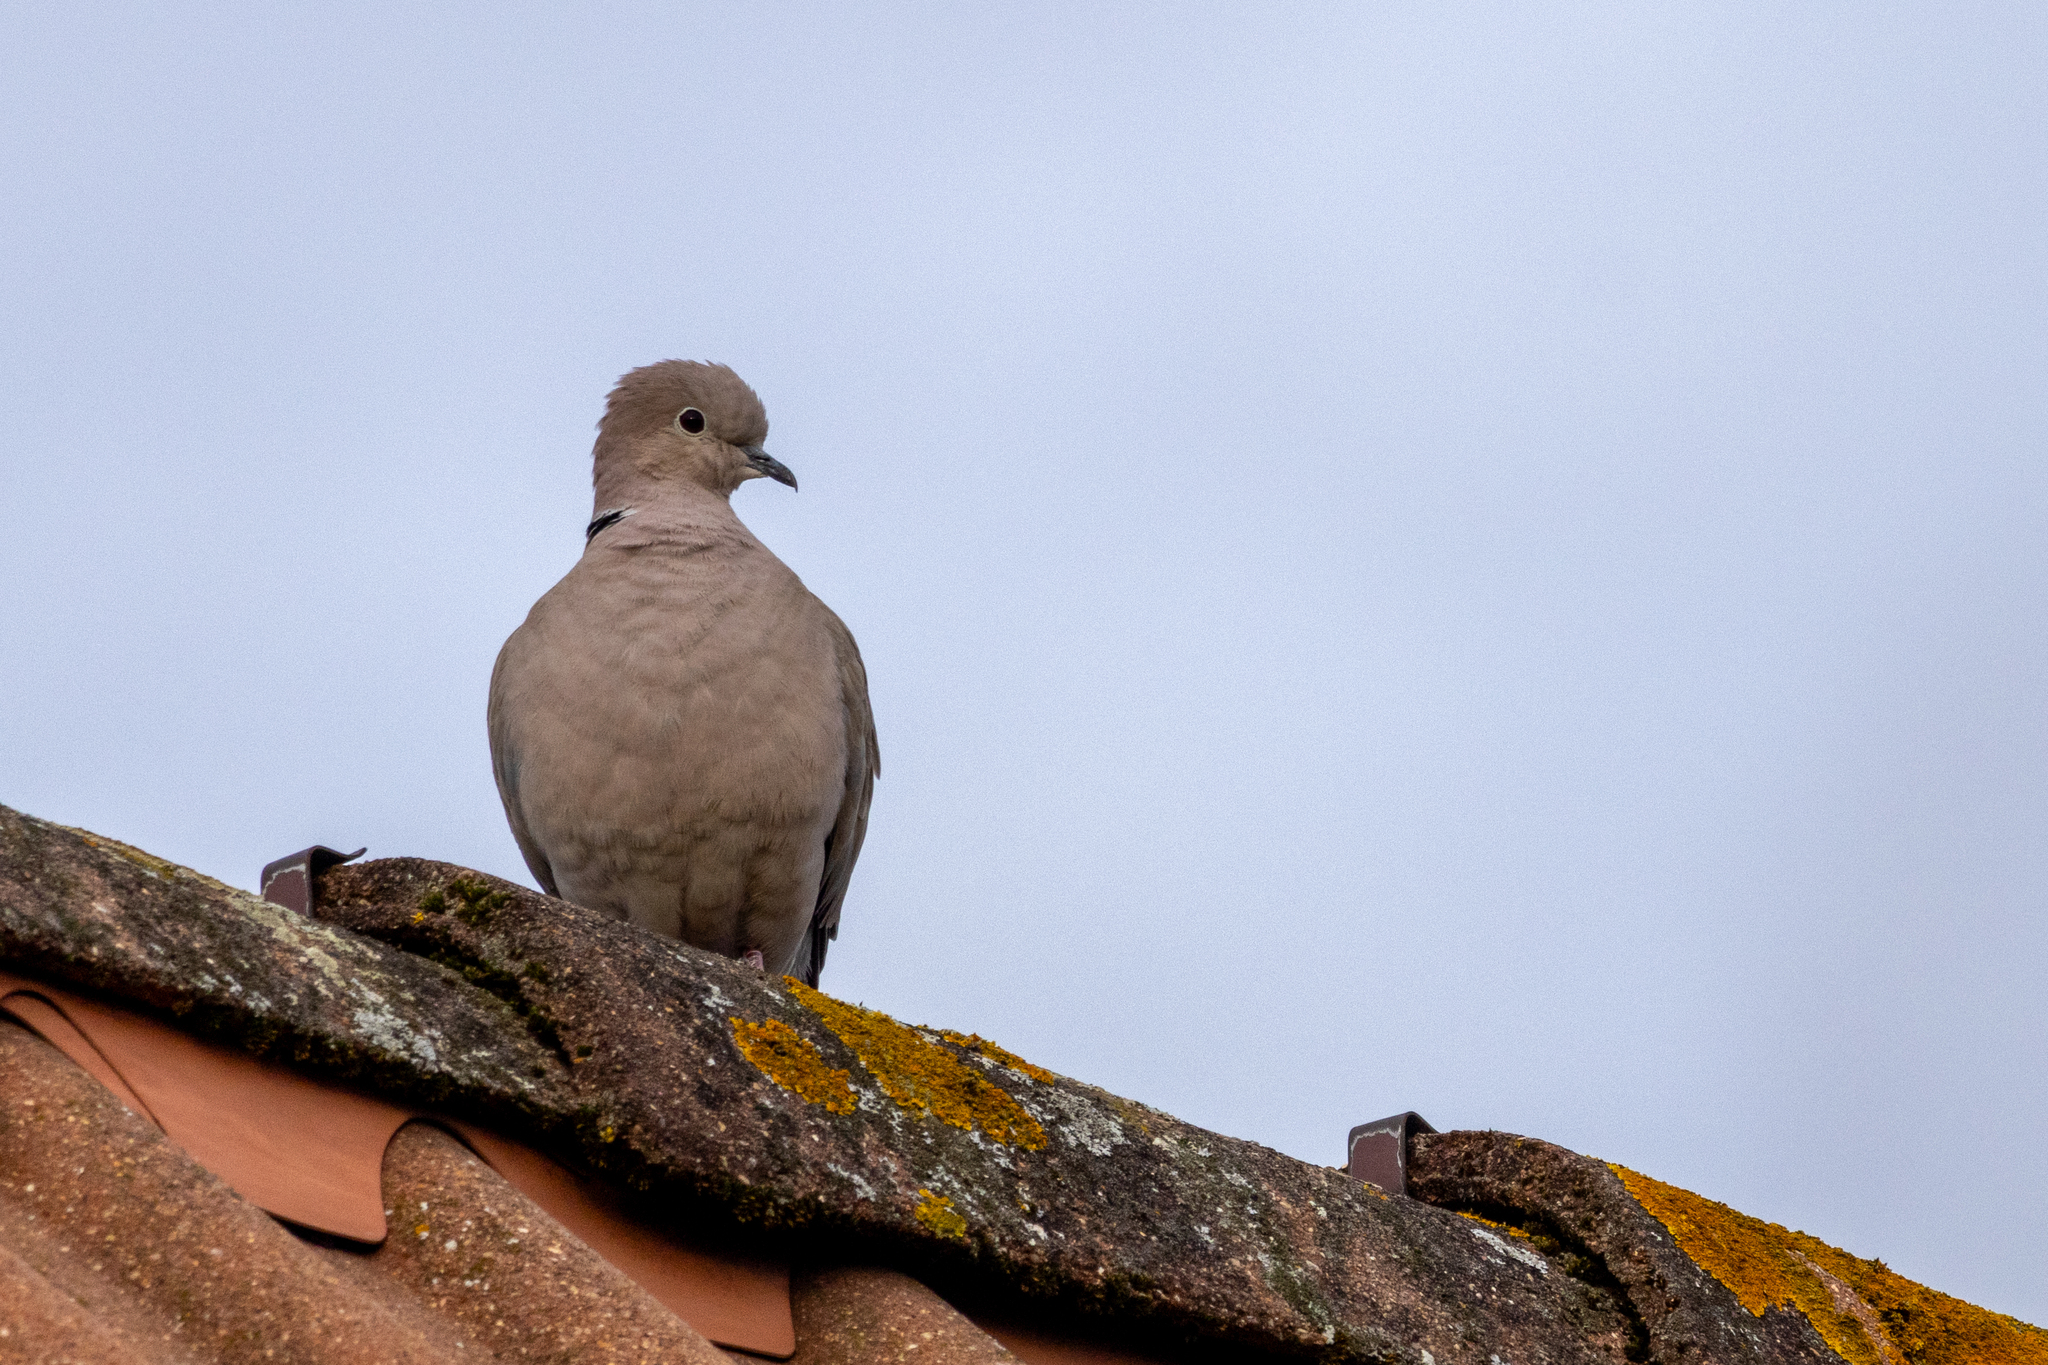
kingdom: Animalia
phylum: Chordata
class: Aves
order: Columbiformes
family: Columbidae
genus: Streptopelia
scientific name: Streptopelia decaocto
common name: Eurasian collared dove
